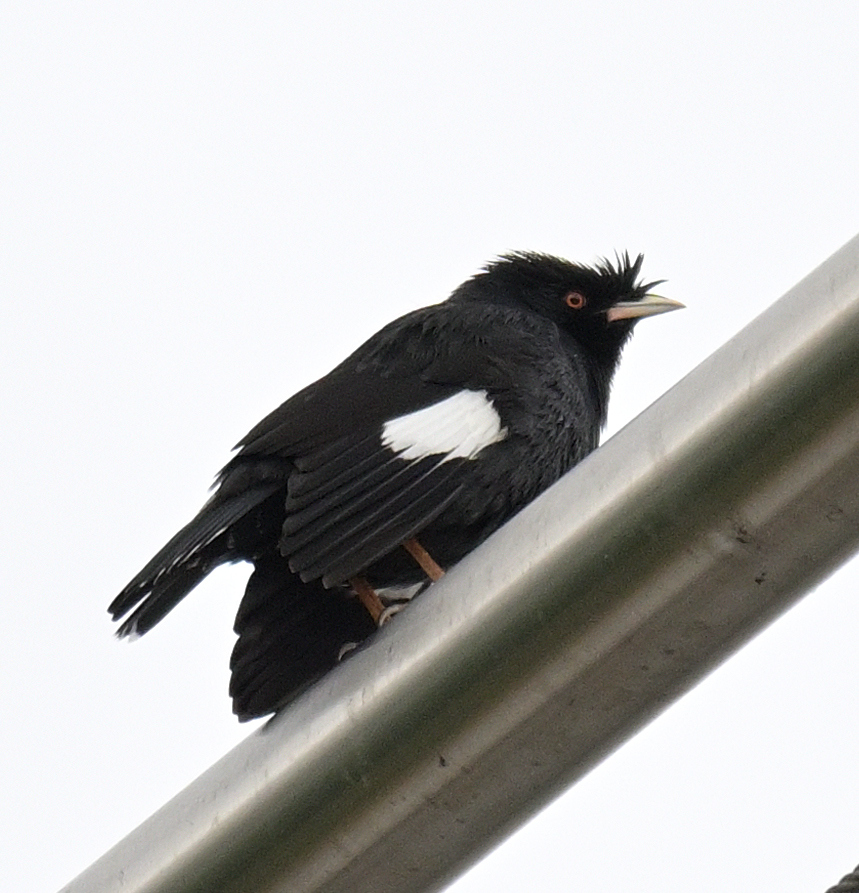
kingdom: Animalia
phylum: Chordata
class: Aves
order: Passeriformes
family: Sturnidae
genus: Acridotheres
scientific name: Acridotheres cristatellus
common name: Crested myna
